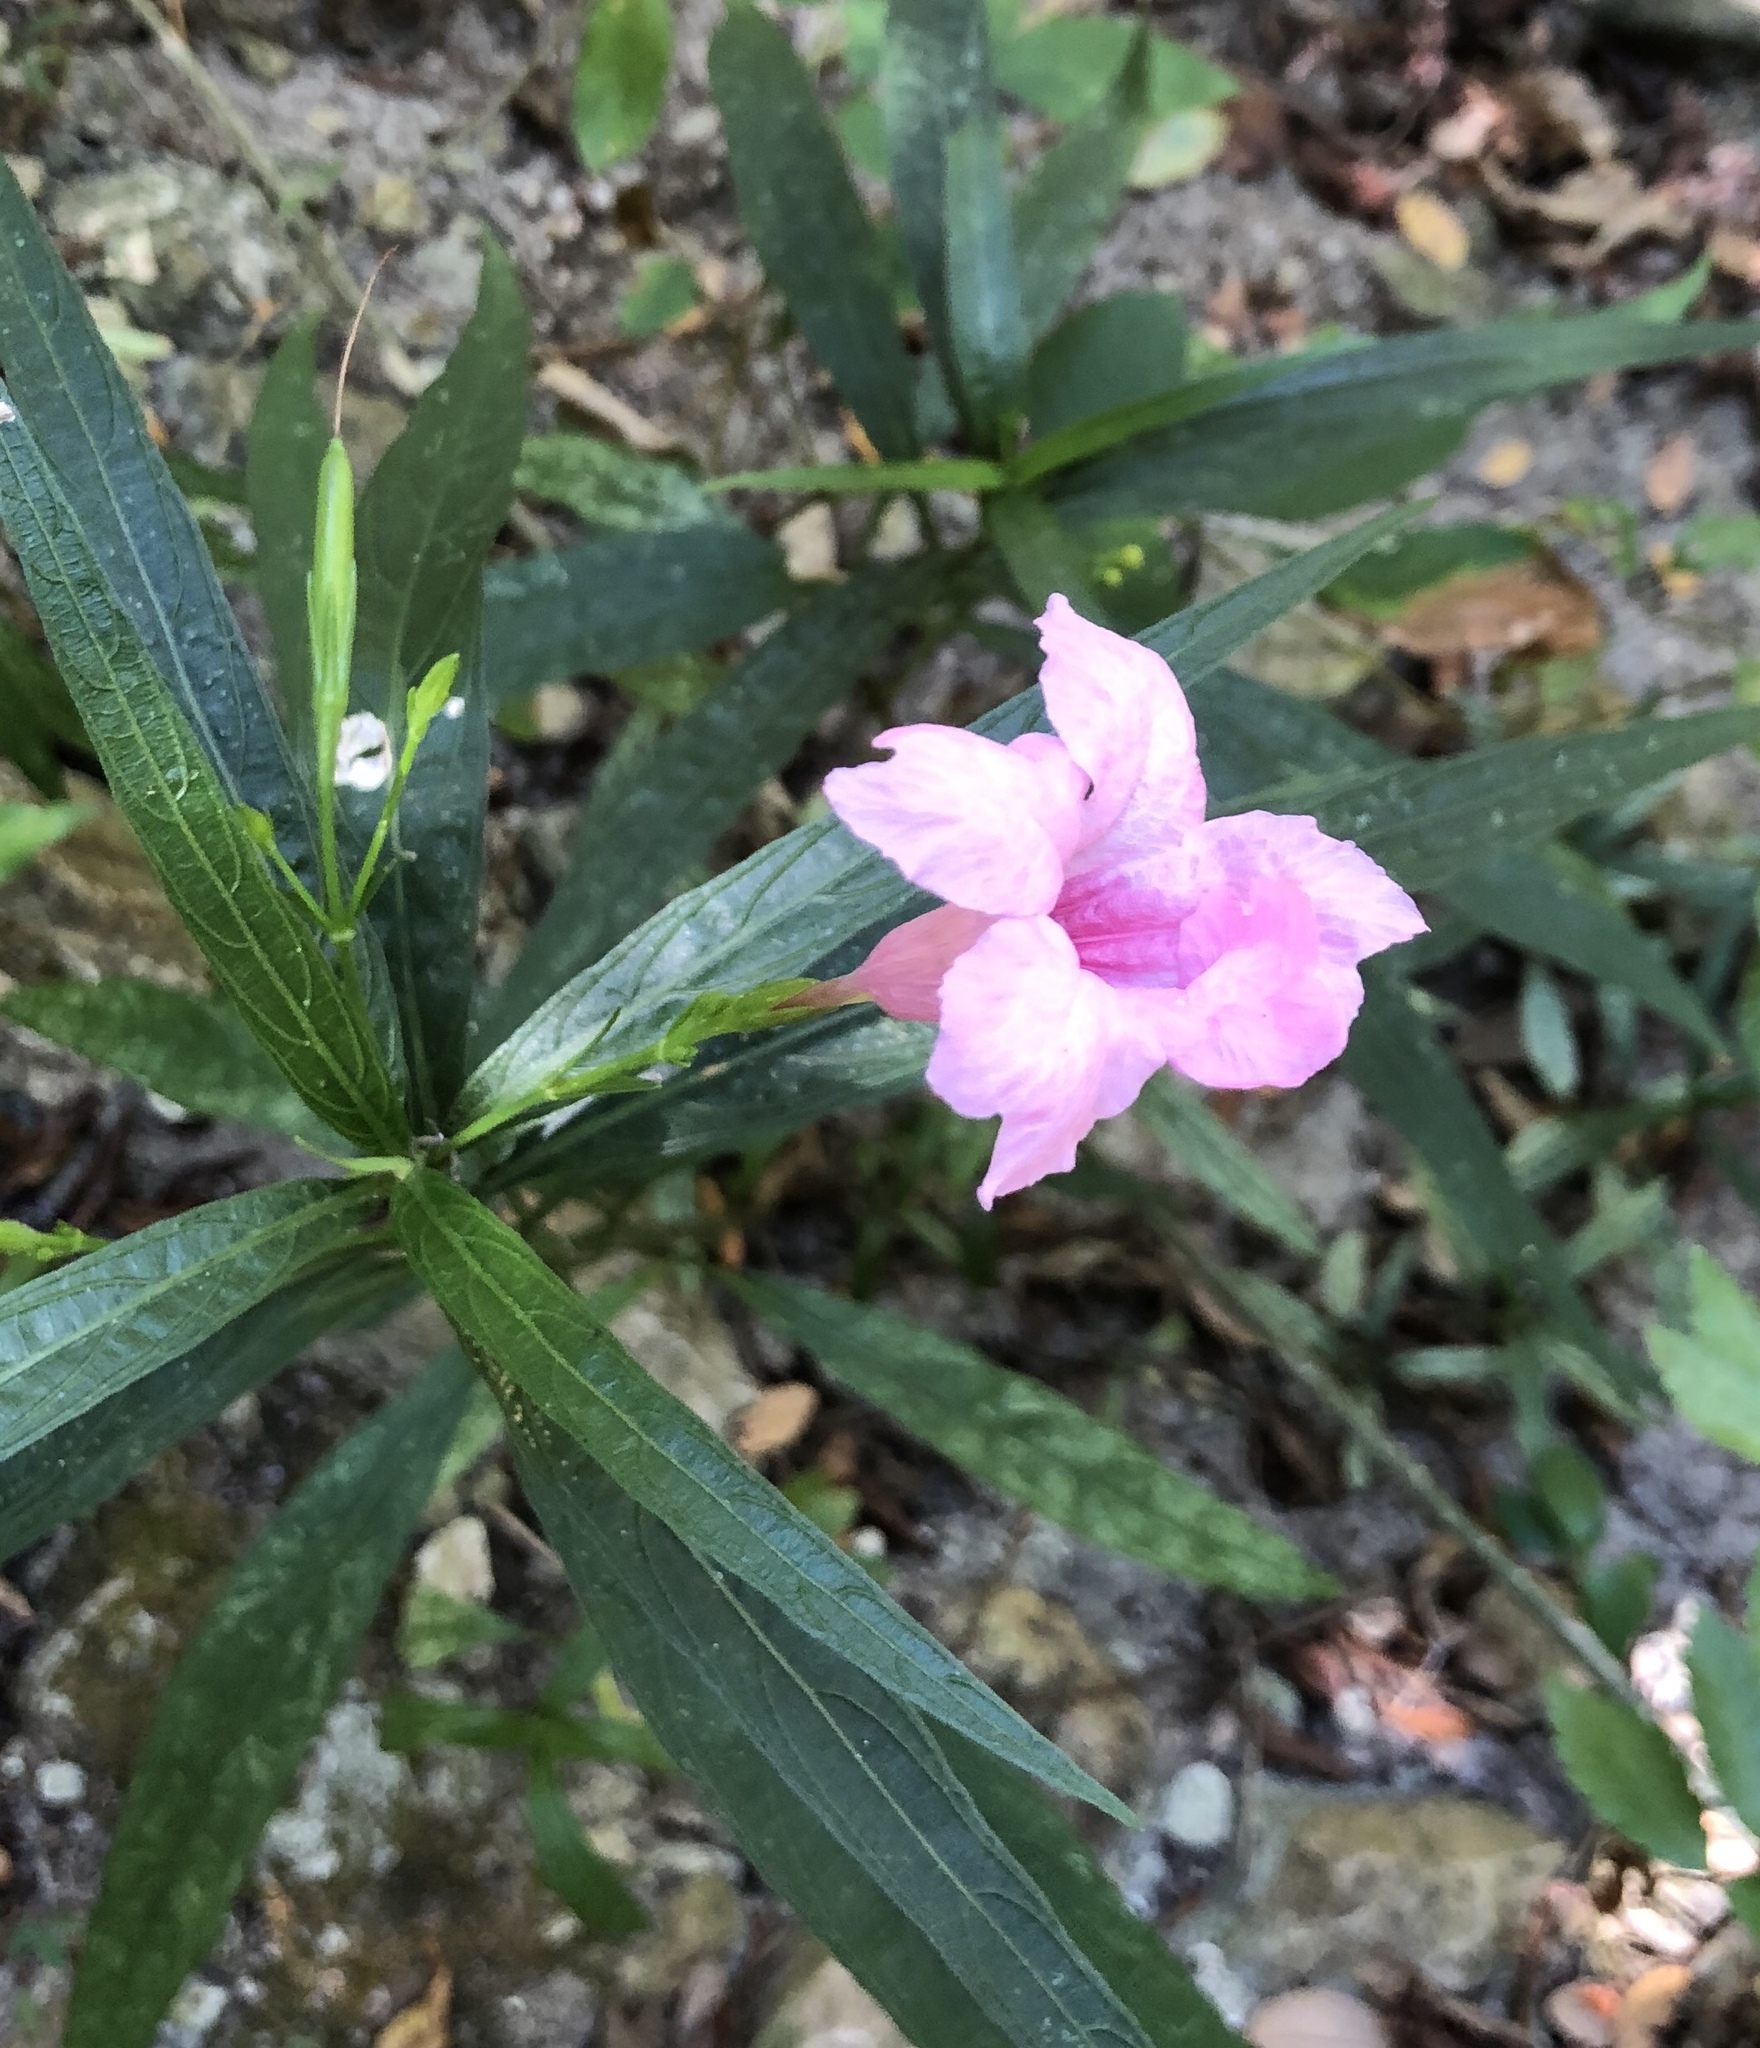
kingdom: Plantae
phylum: Tracheophyta
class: Magnoliopsida
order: Lamiales
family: Acanthaceae
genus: Ruellia
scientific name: Ruellia simplex
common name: Softseed wild petunia
